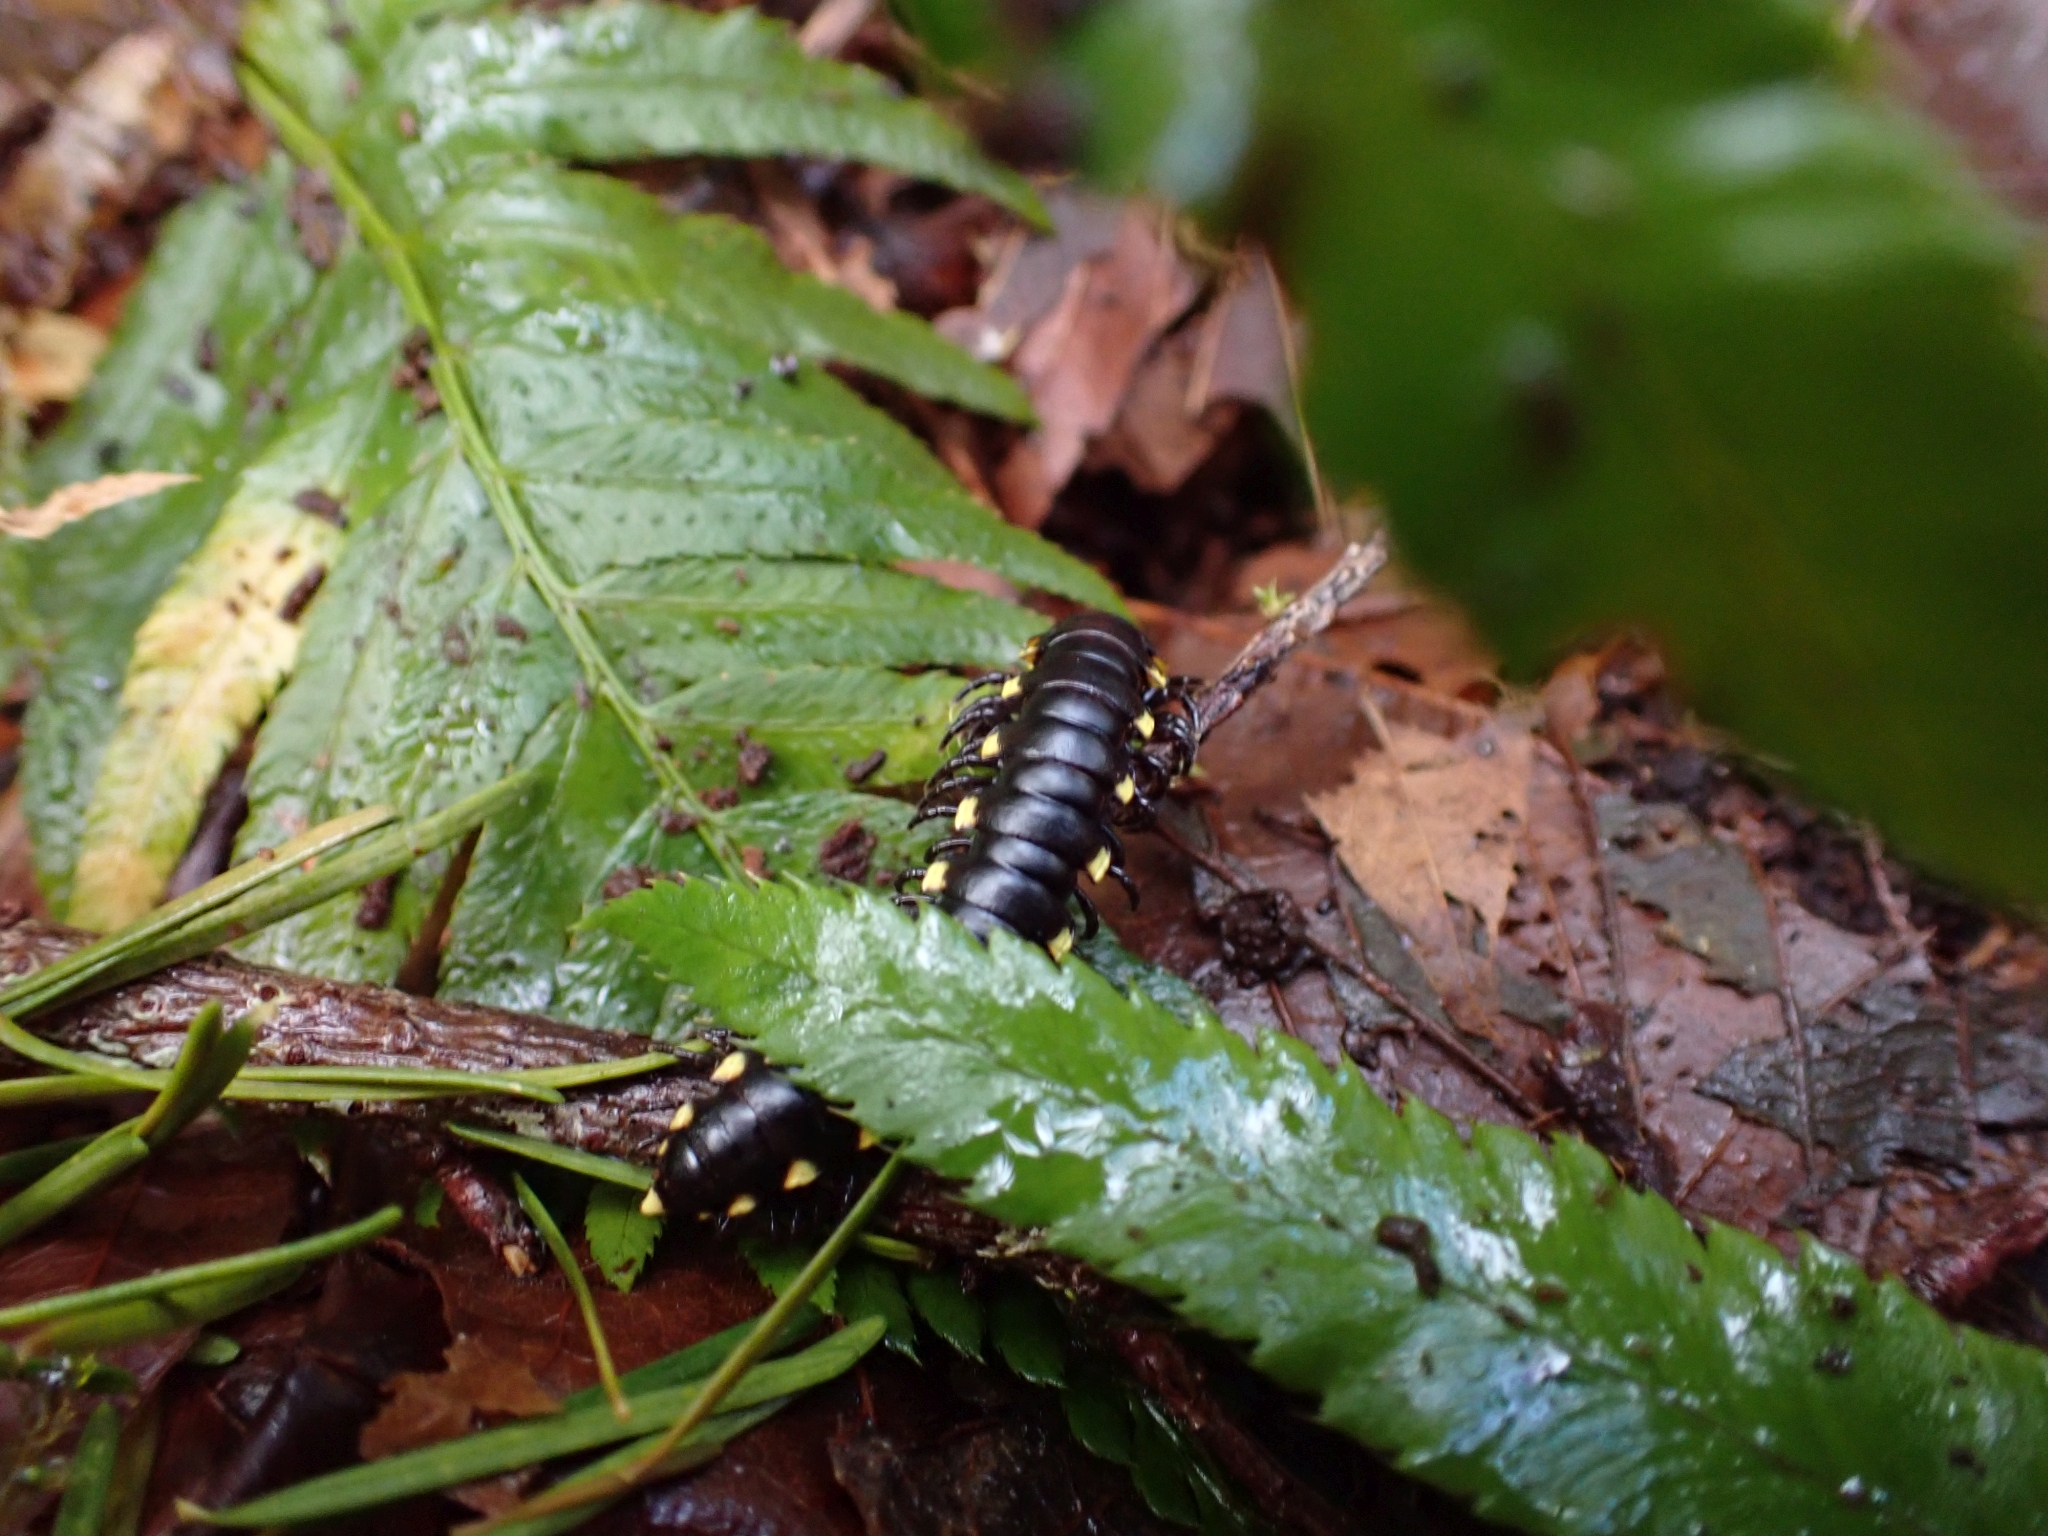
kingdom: Animalia
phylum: Arthropoda
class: Diplopoda
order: Polydesmida
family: Xystodesmidae
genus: Harpaphe
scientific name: Harpaphe haydeniana
